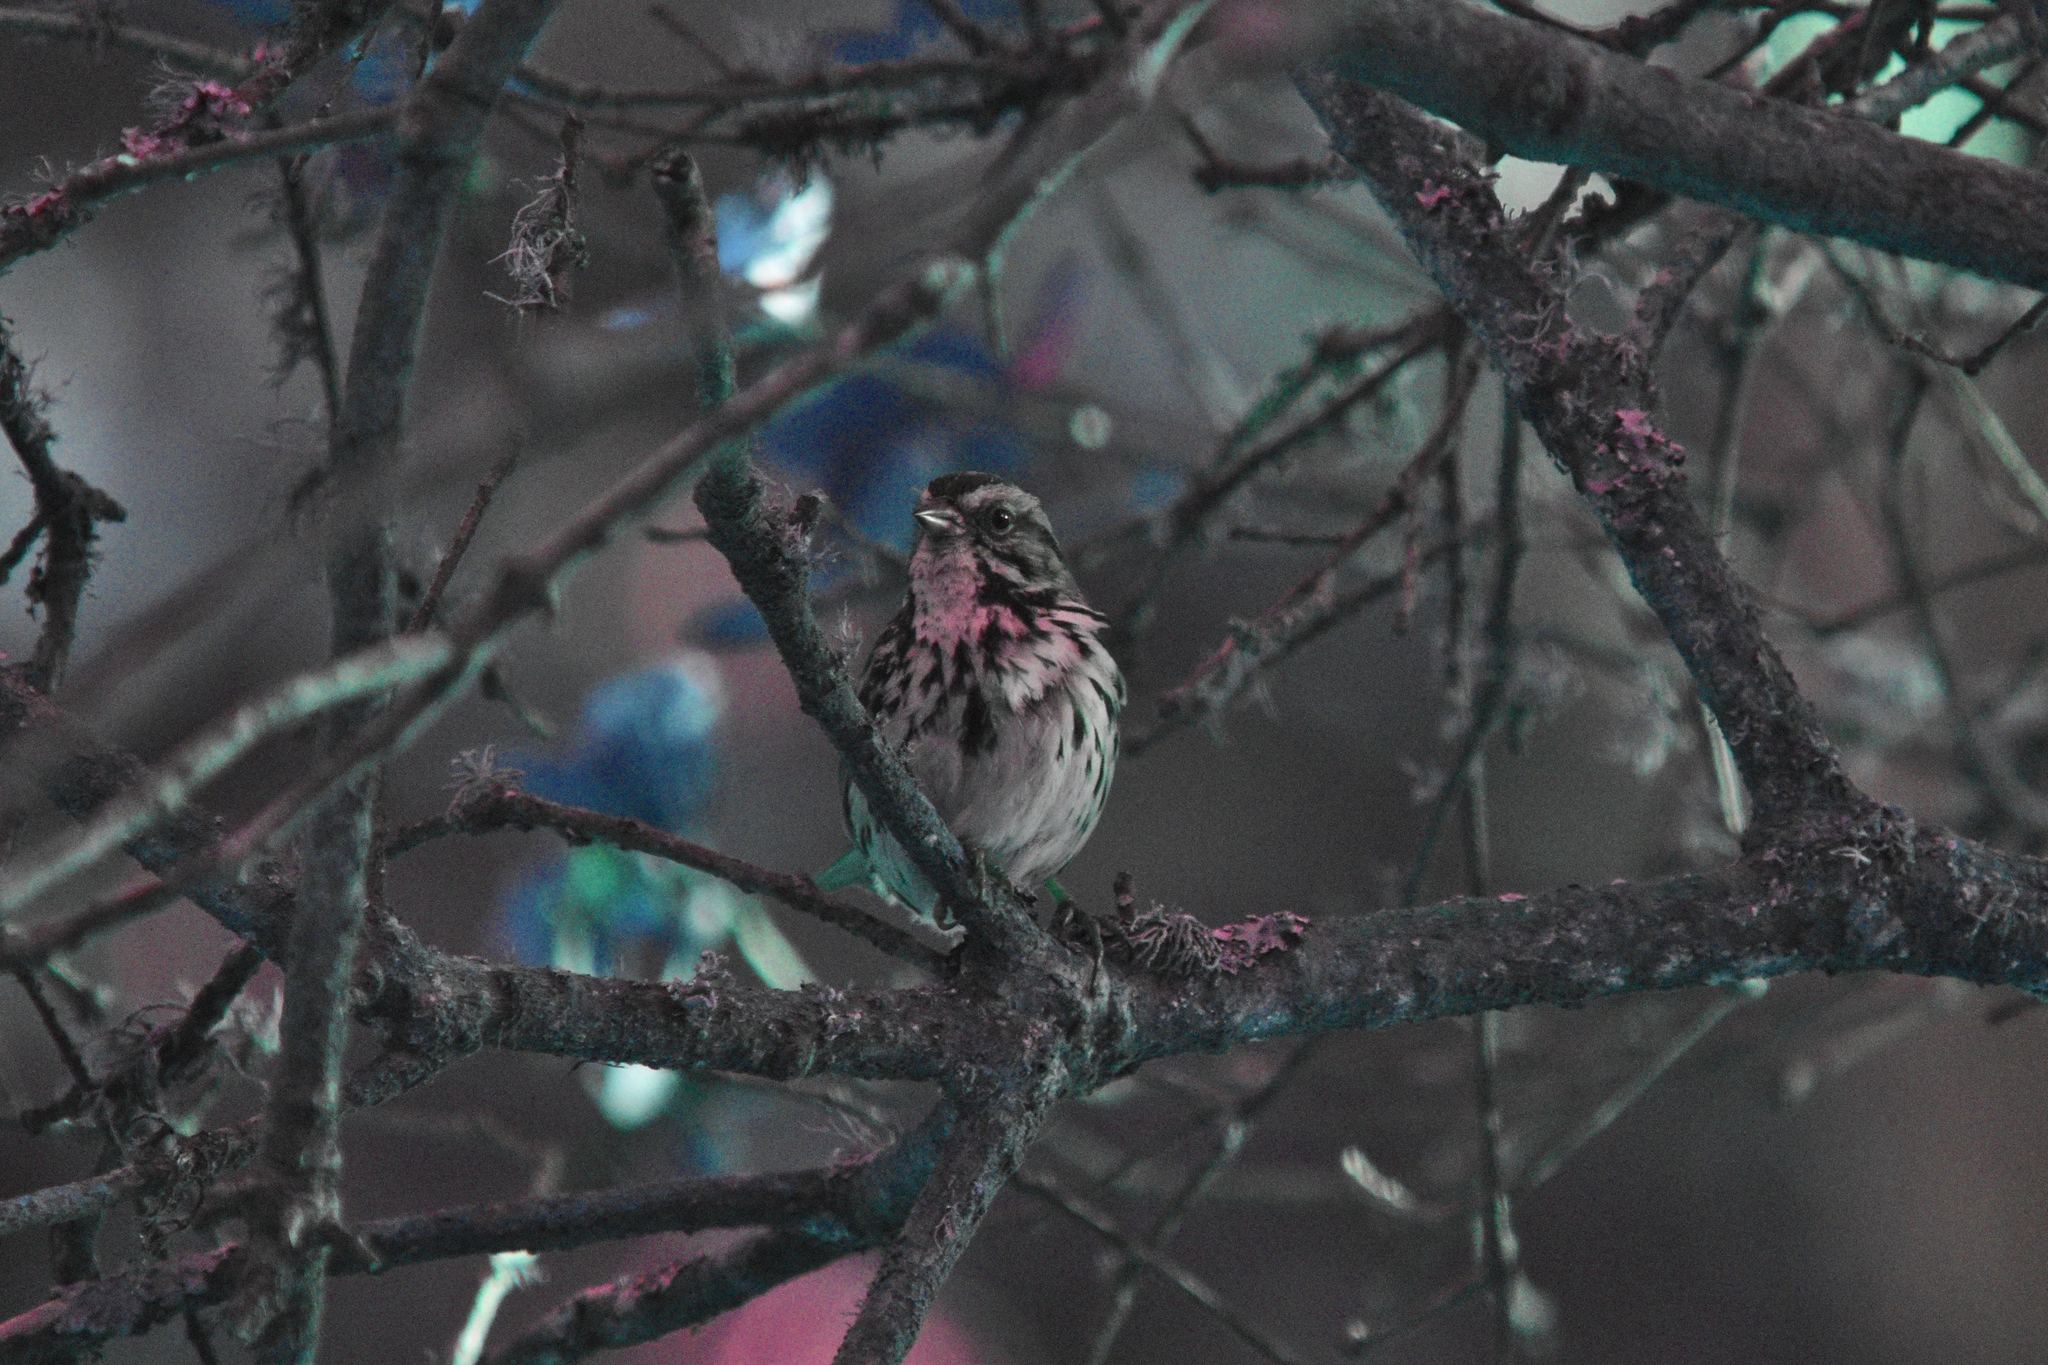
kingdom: Animalia
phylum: Chordata
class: Aves
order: Passeriformes
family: Passerellidae
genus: Melospiza
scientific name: Melospiza melodia
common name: Song sparrow
